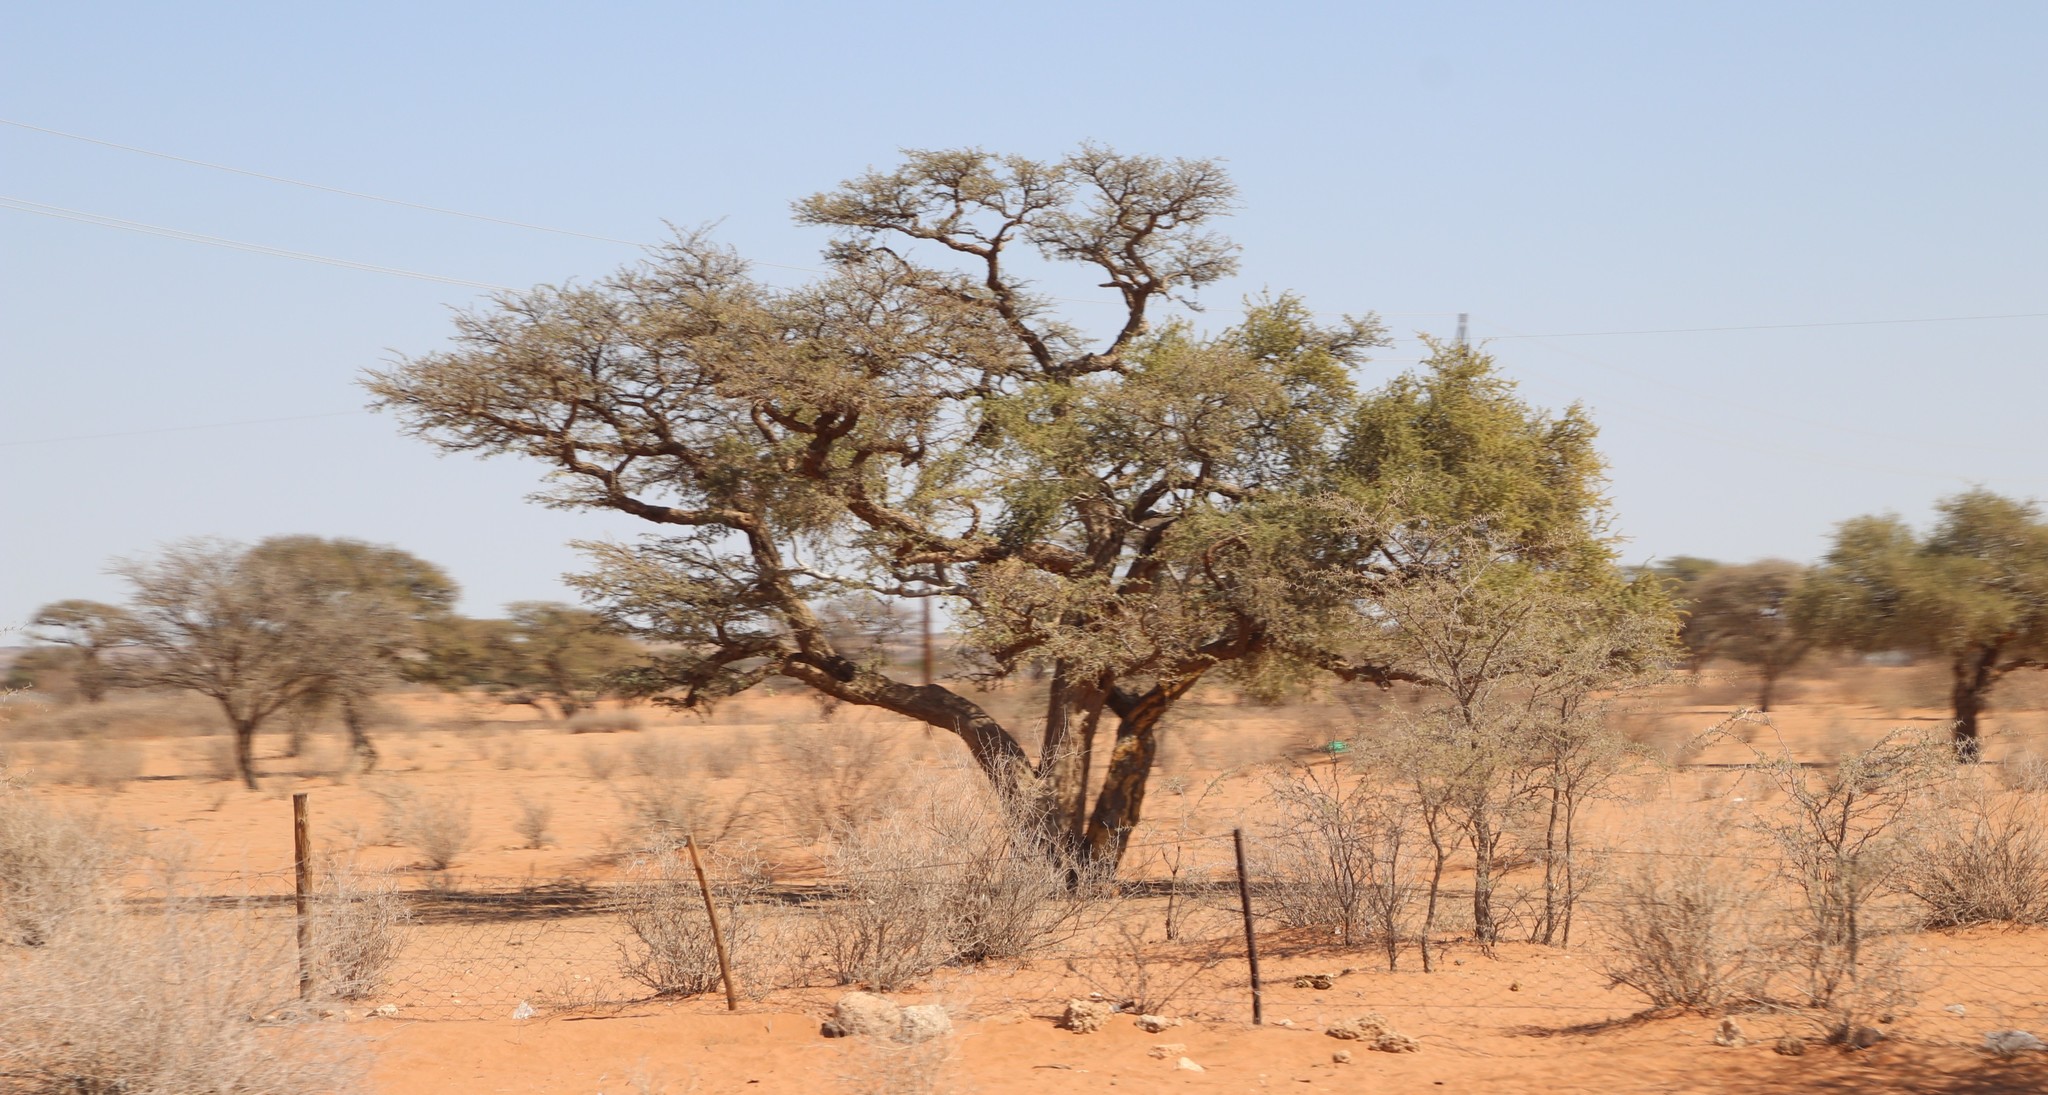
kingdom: Plantae
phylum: Tracheophyta
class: Magnoliopsida
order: Fabales
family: Fabaceae
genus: Vachellia
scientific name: Vachellia erioloba
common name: Camel thorn
